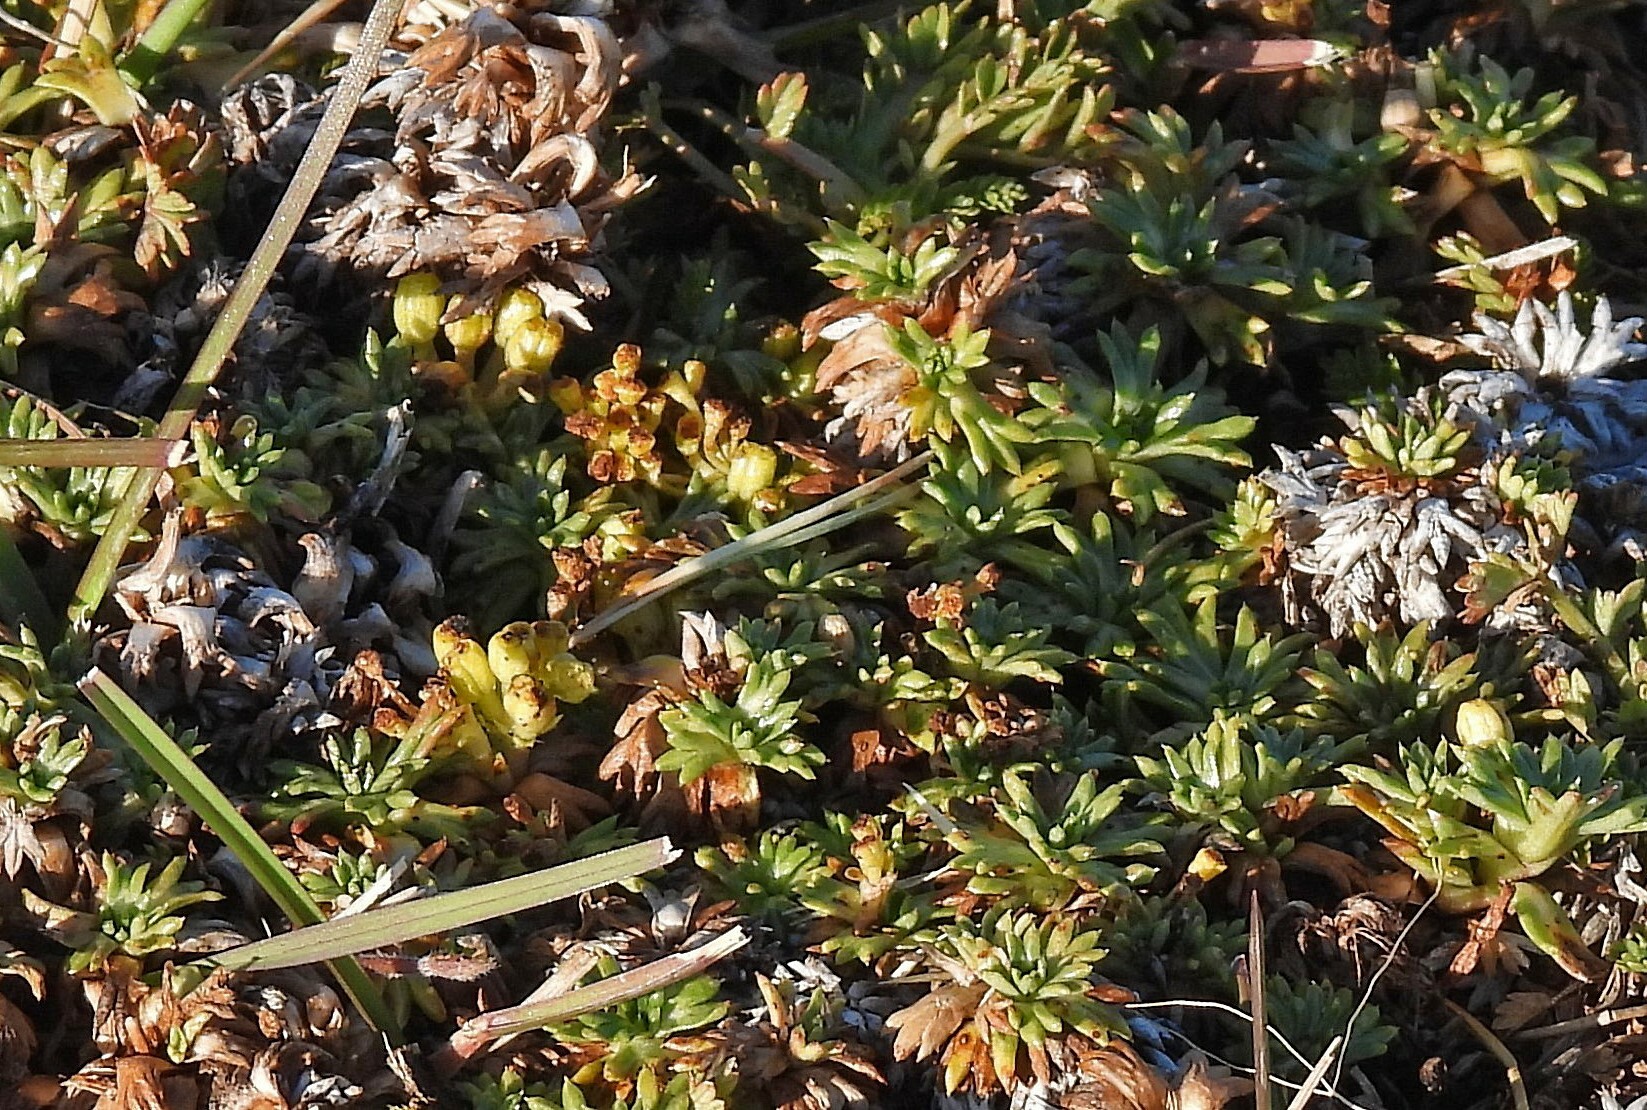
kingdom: Plantae
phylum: Tracheophyta
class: Magnoliopsida
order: Apiales
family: Apiaceae
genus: Azorella
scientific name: Azorella trifurcata
